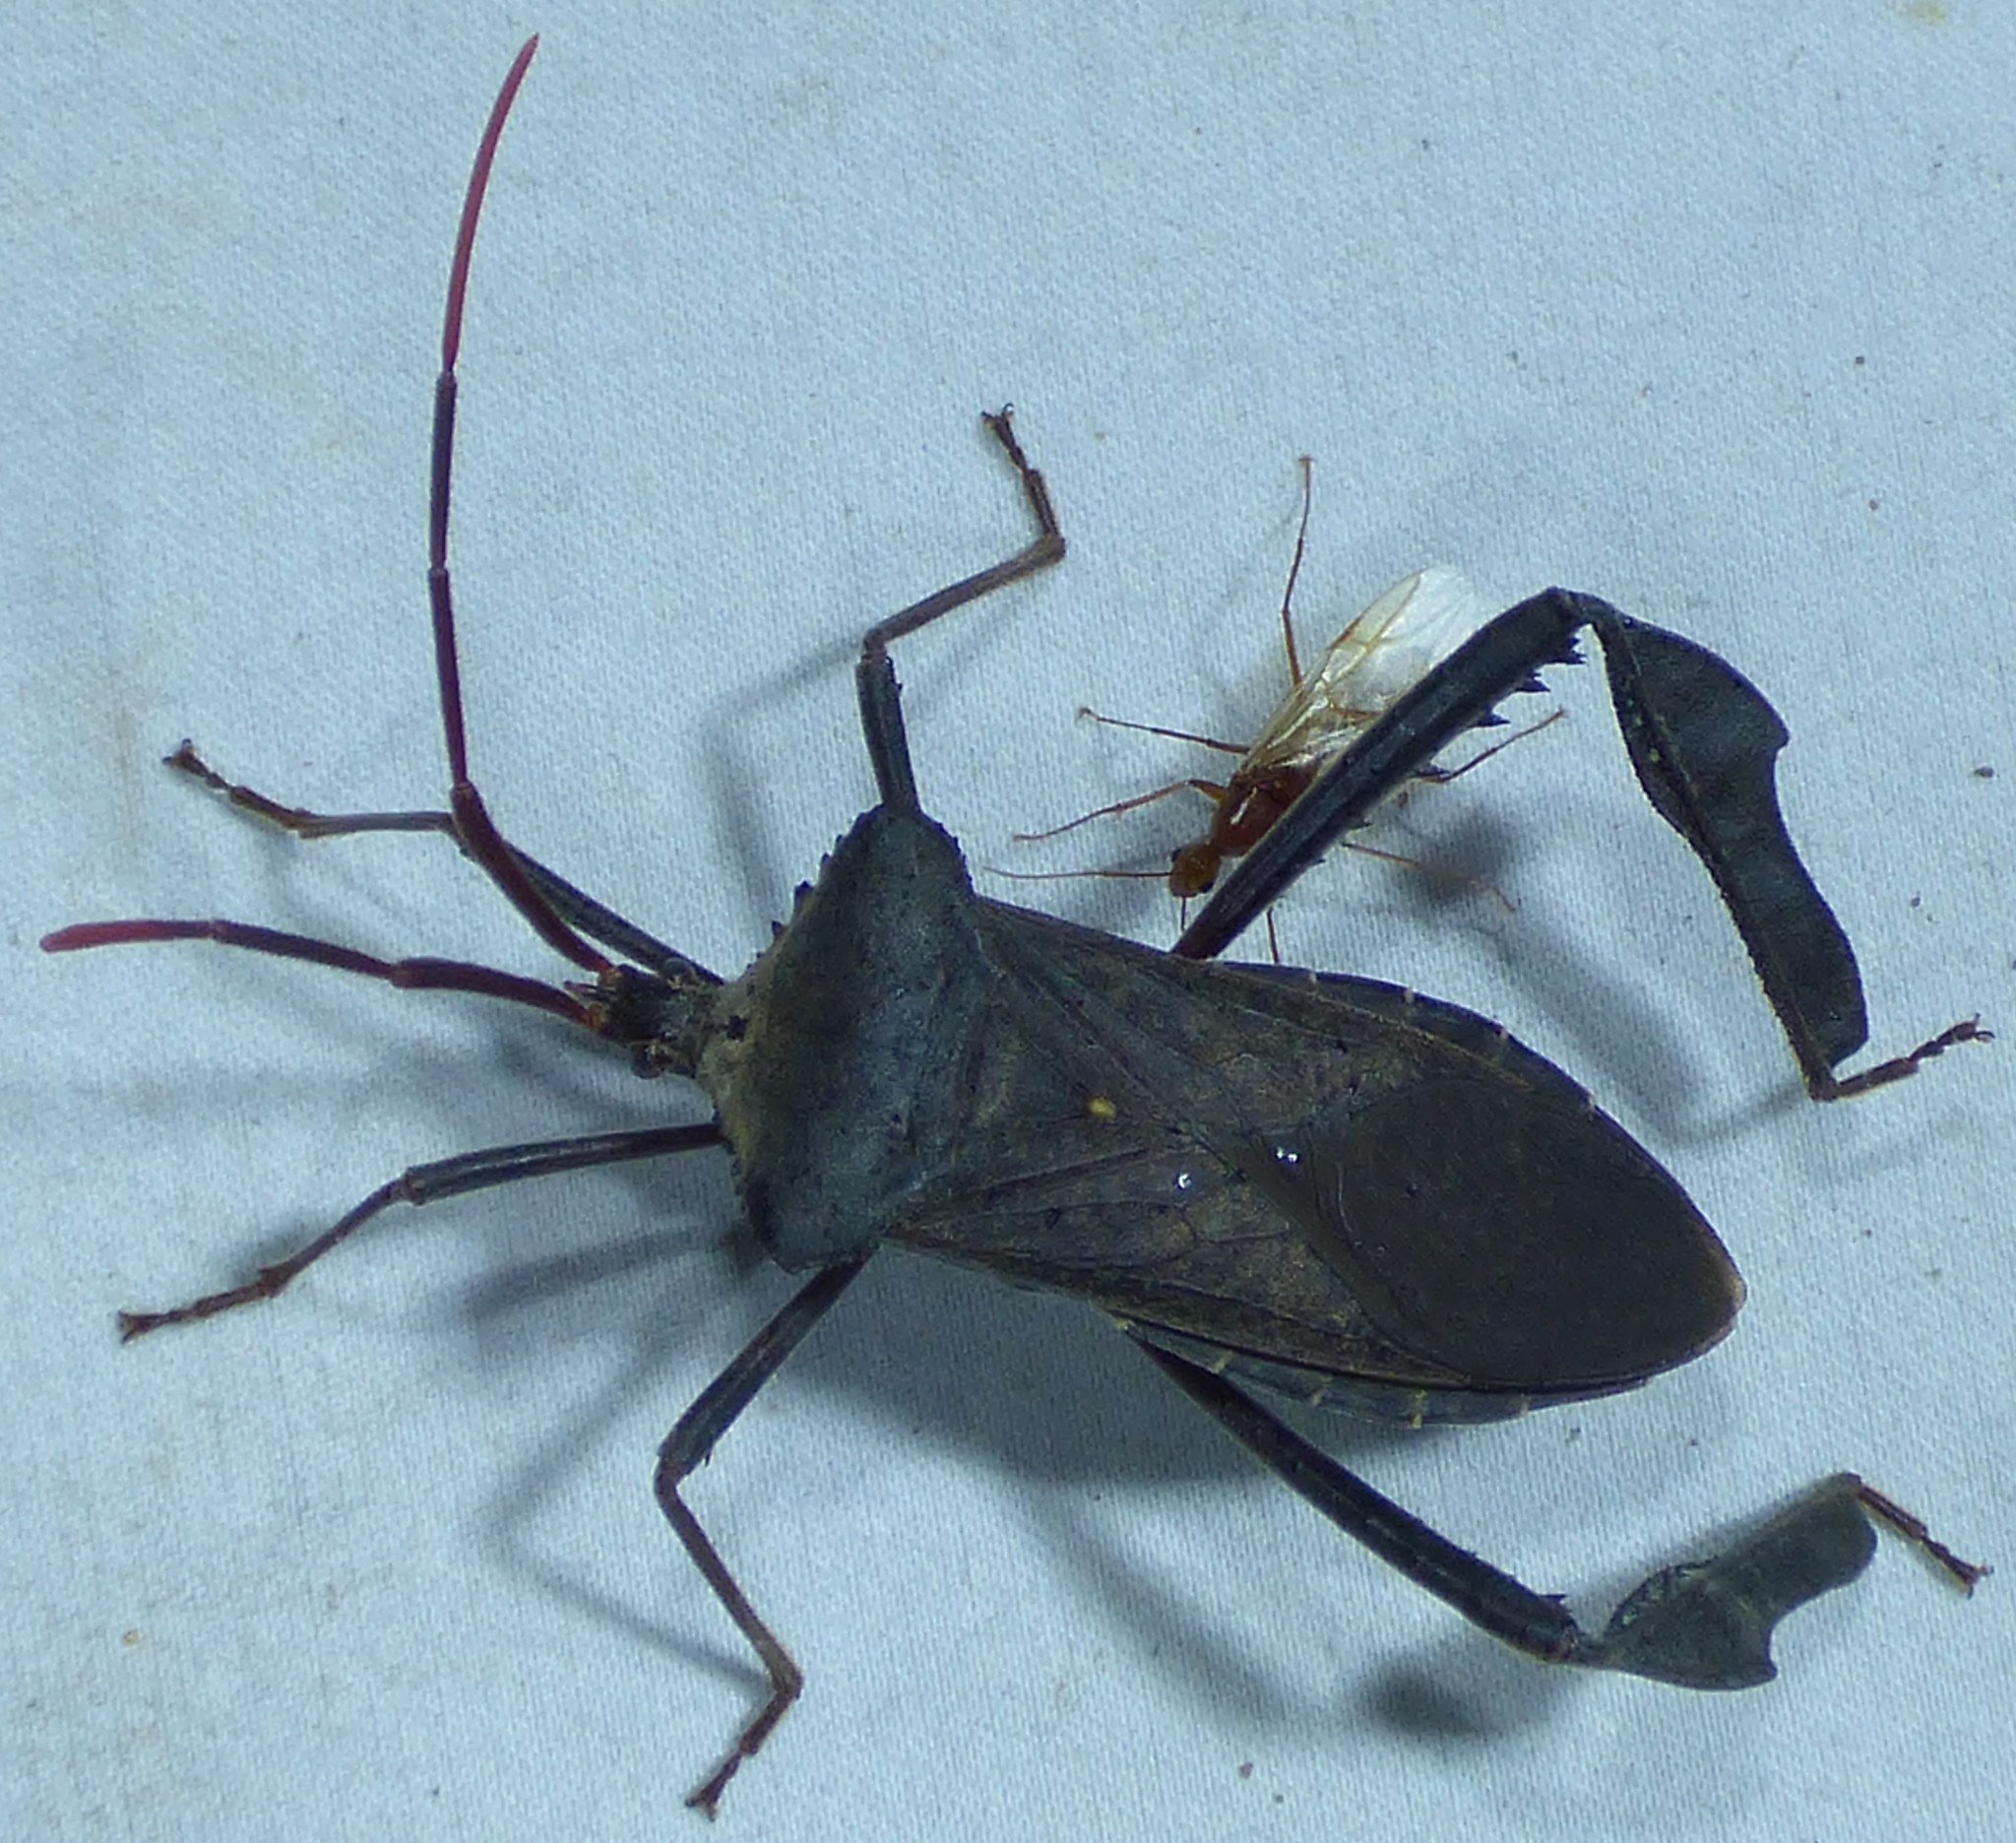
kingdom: Animalia
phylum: Arthropoda
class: Insecta
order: Hemiptera
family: Coreidae
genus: Acanthocephala
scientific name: Acanthocephala declivis
